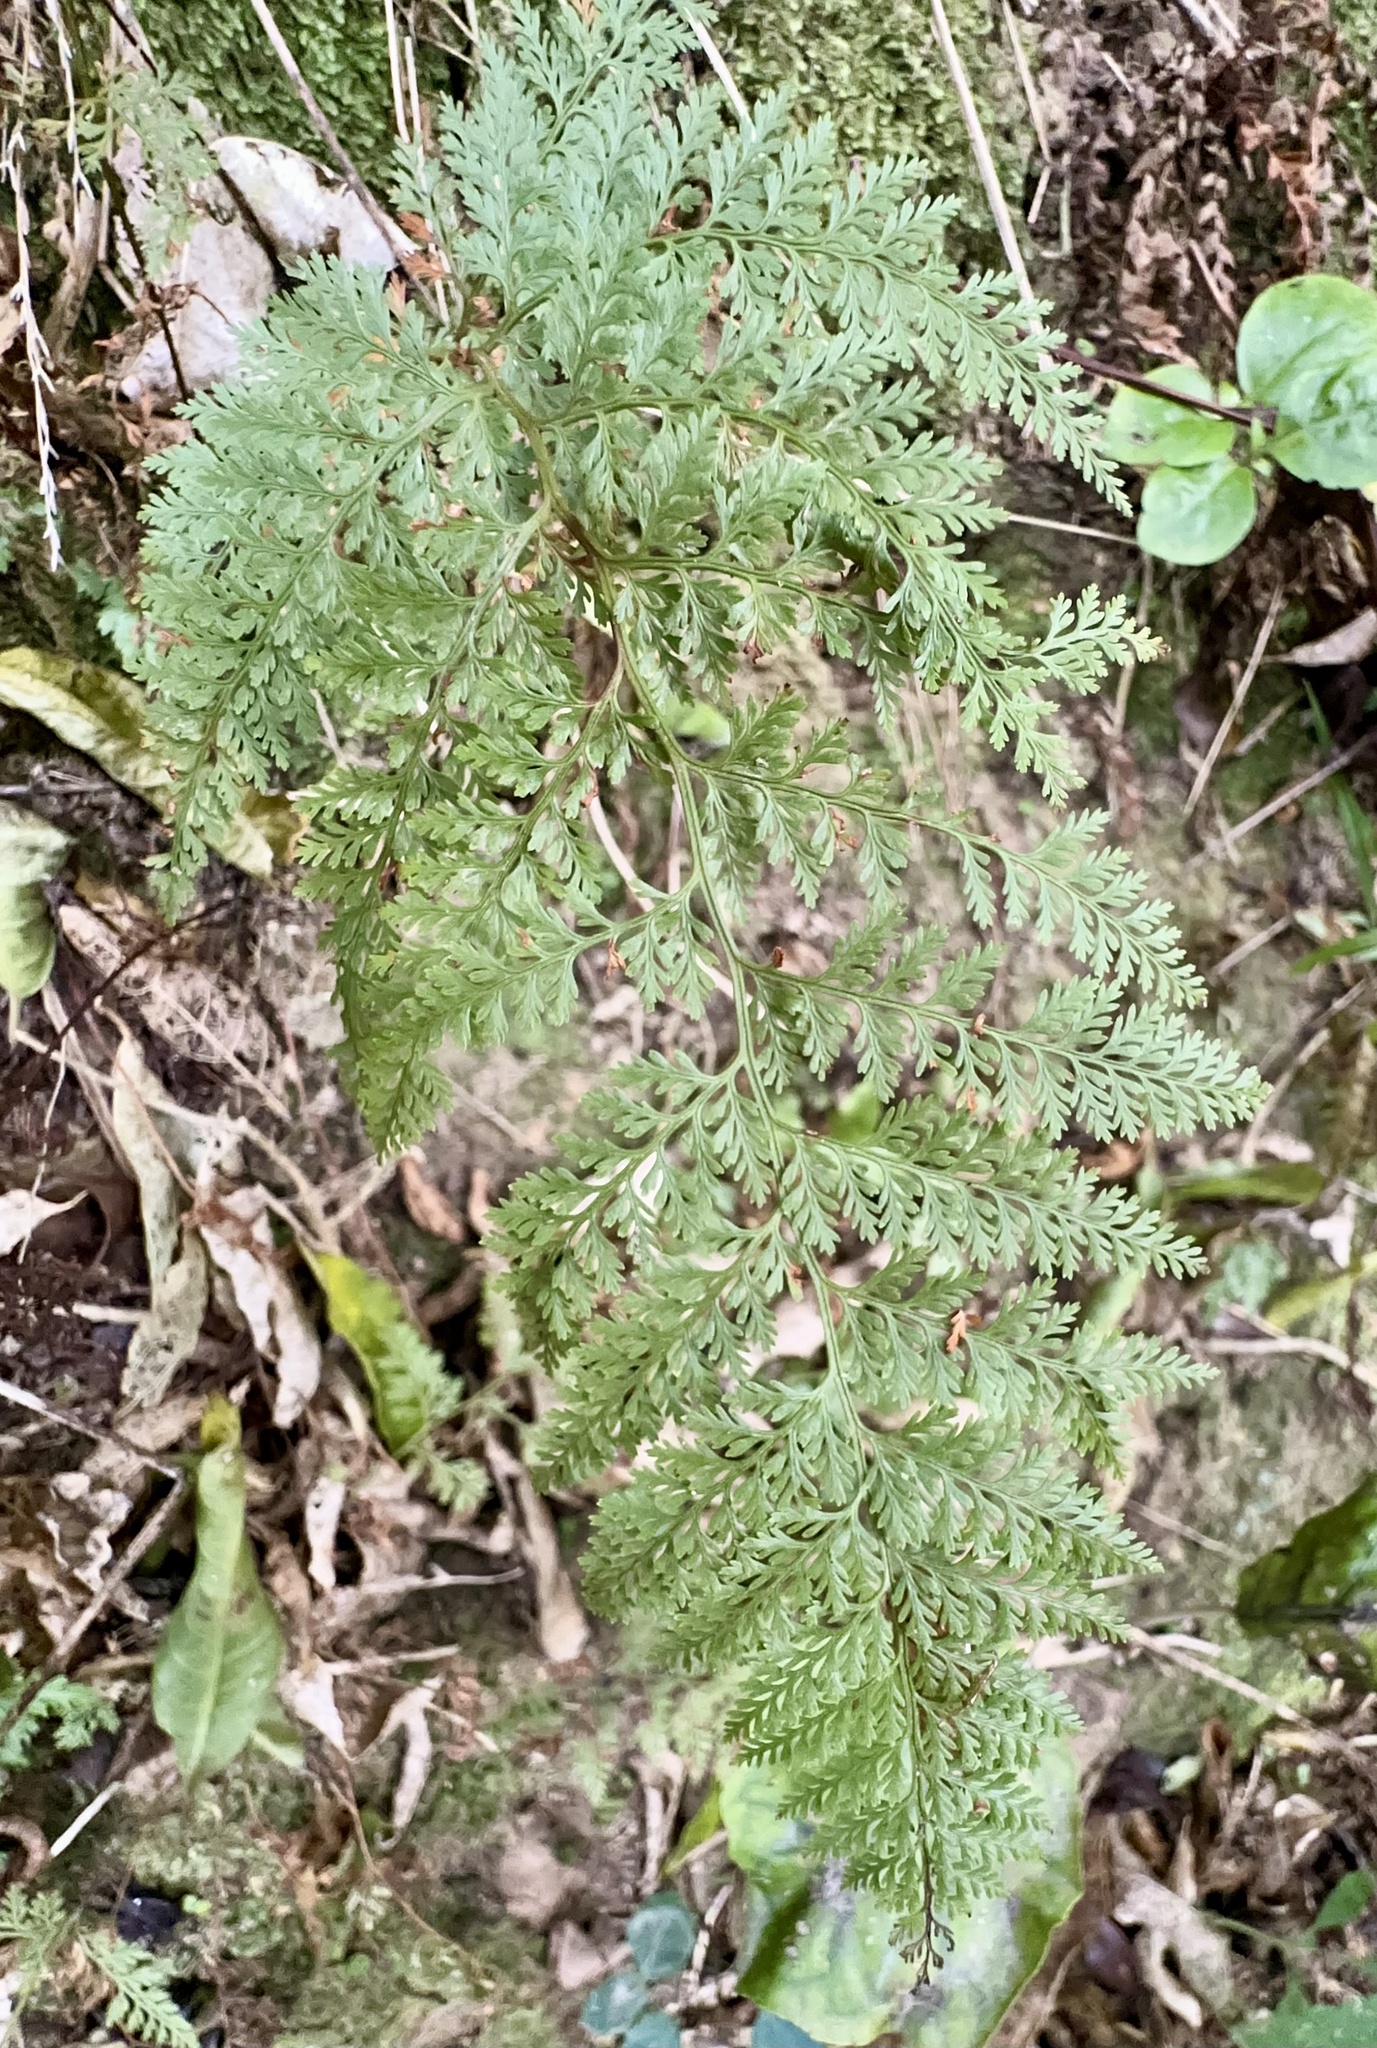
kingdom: Plantae
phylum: Tracheophyta
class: Polypodiopsida
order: Polypodiales
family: Dennstaedtiaceae
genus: Paesia
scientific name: Paesia scaberula
